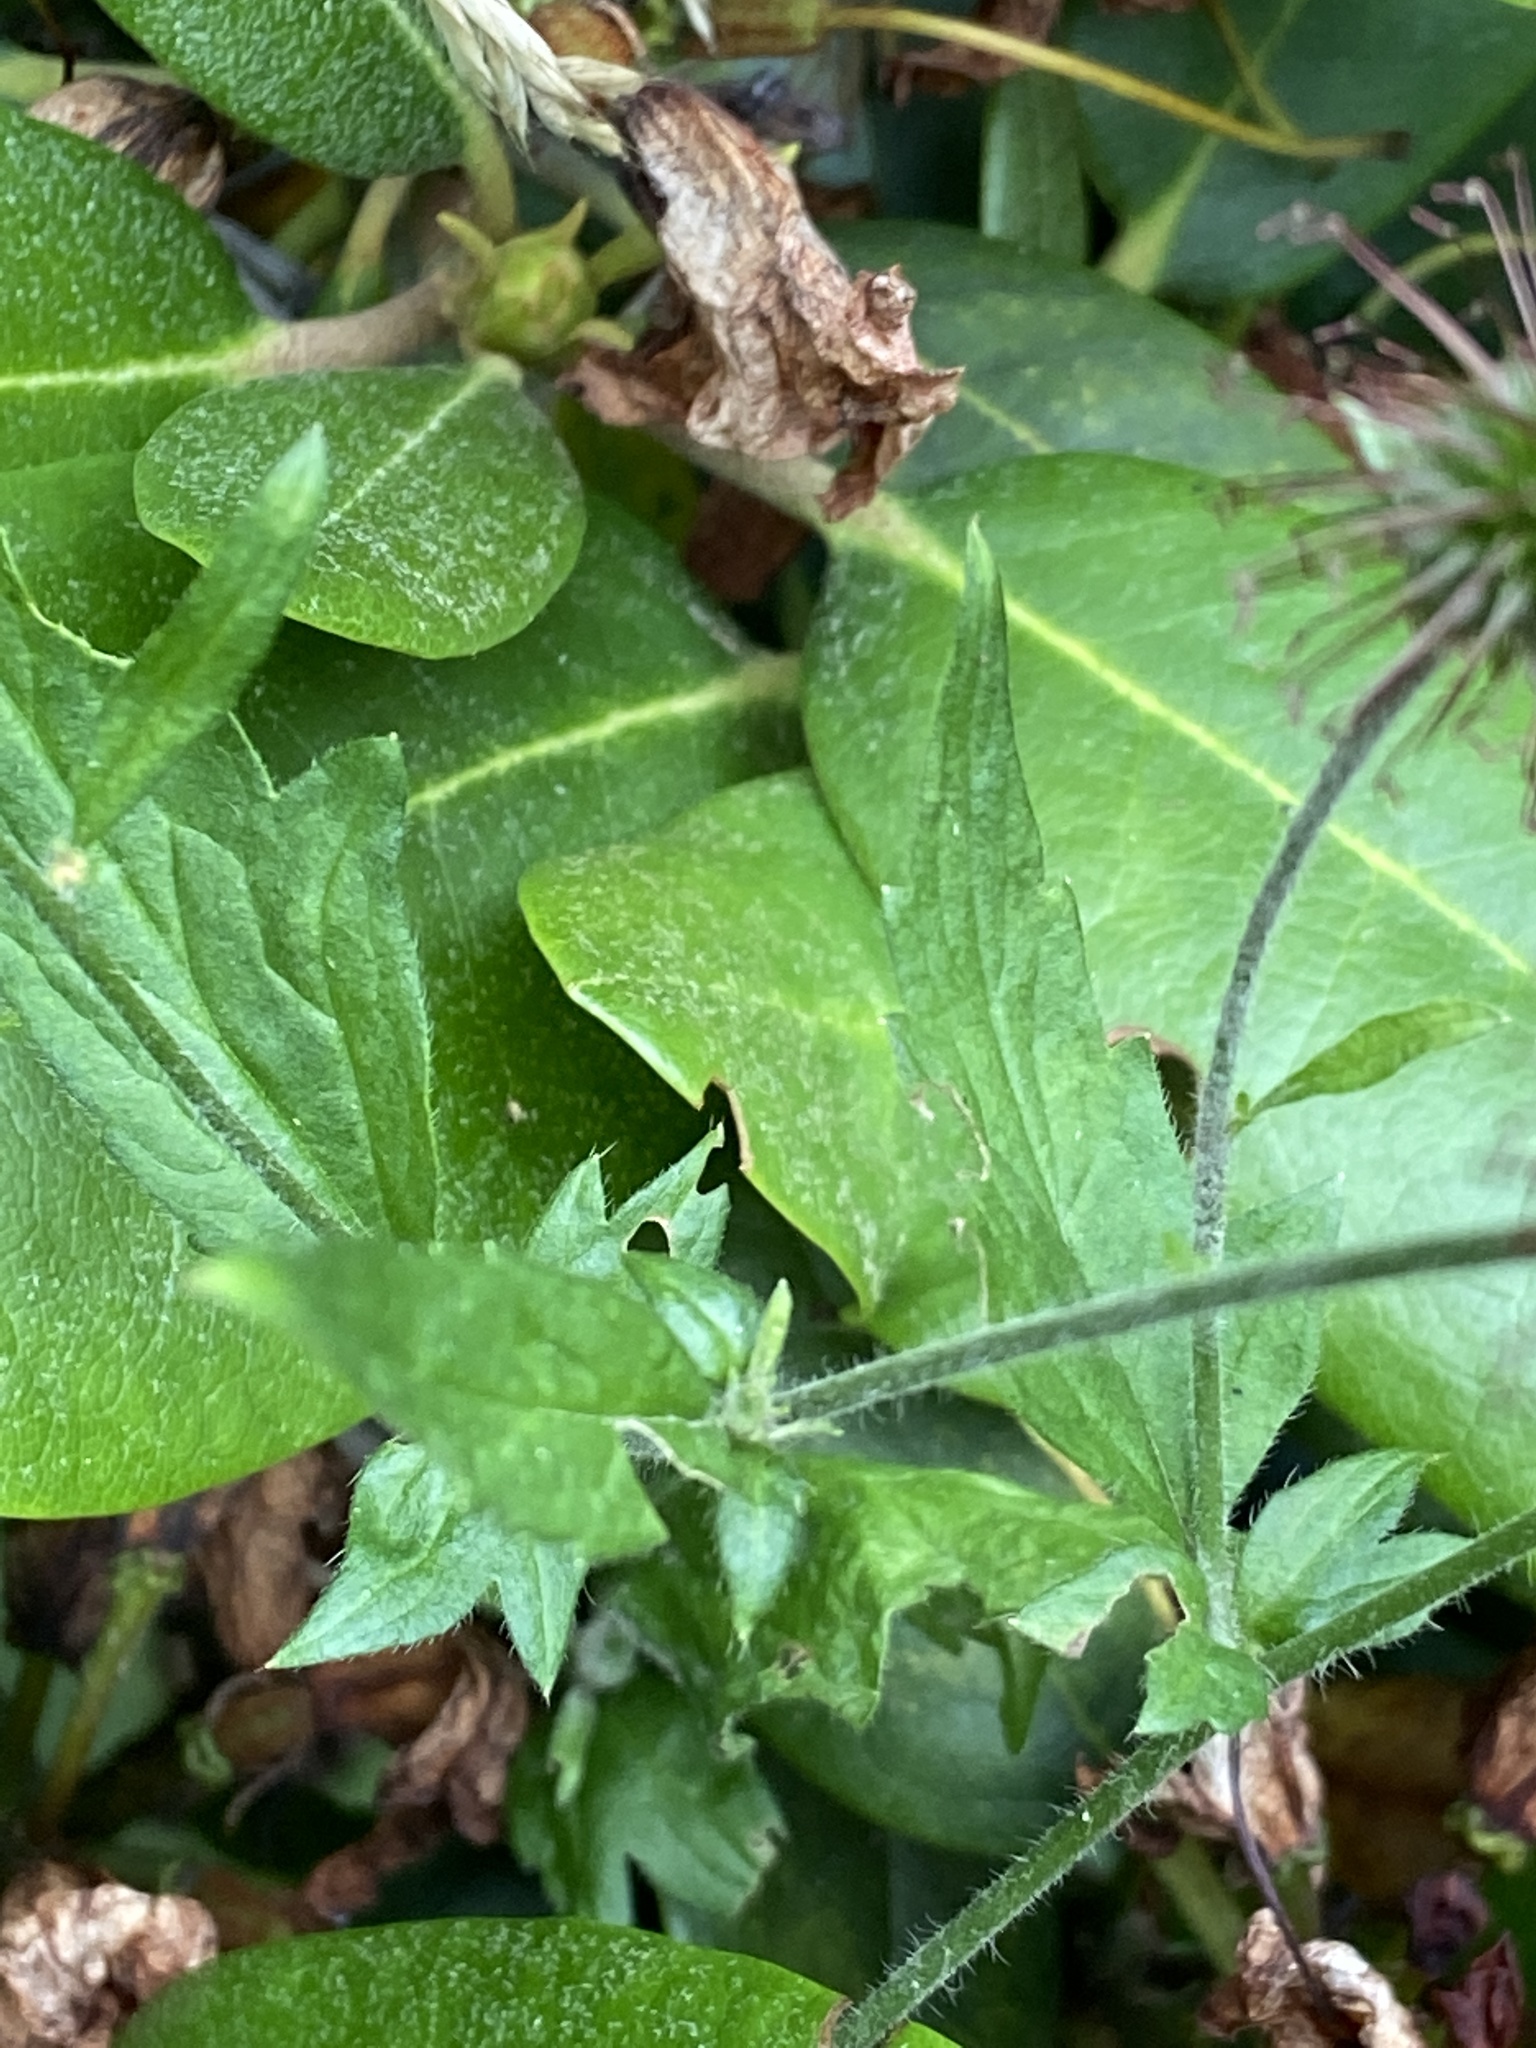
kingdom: Plantae
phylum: Tracheophyta
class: Magnoliopsida
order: Rosales
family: Rosaceae
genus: Geum
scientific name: Geum urbanum
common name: Wood avens
